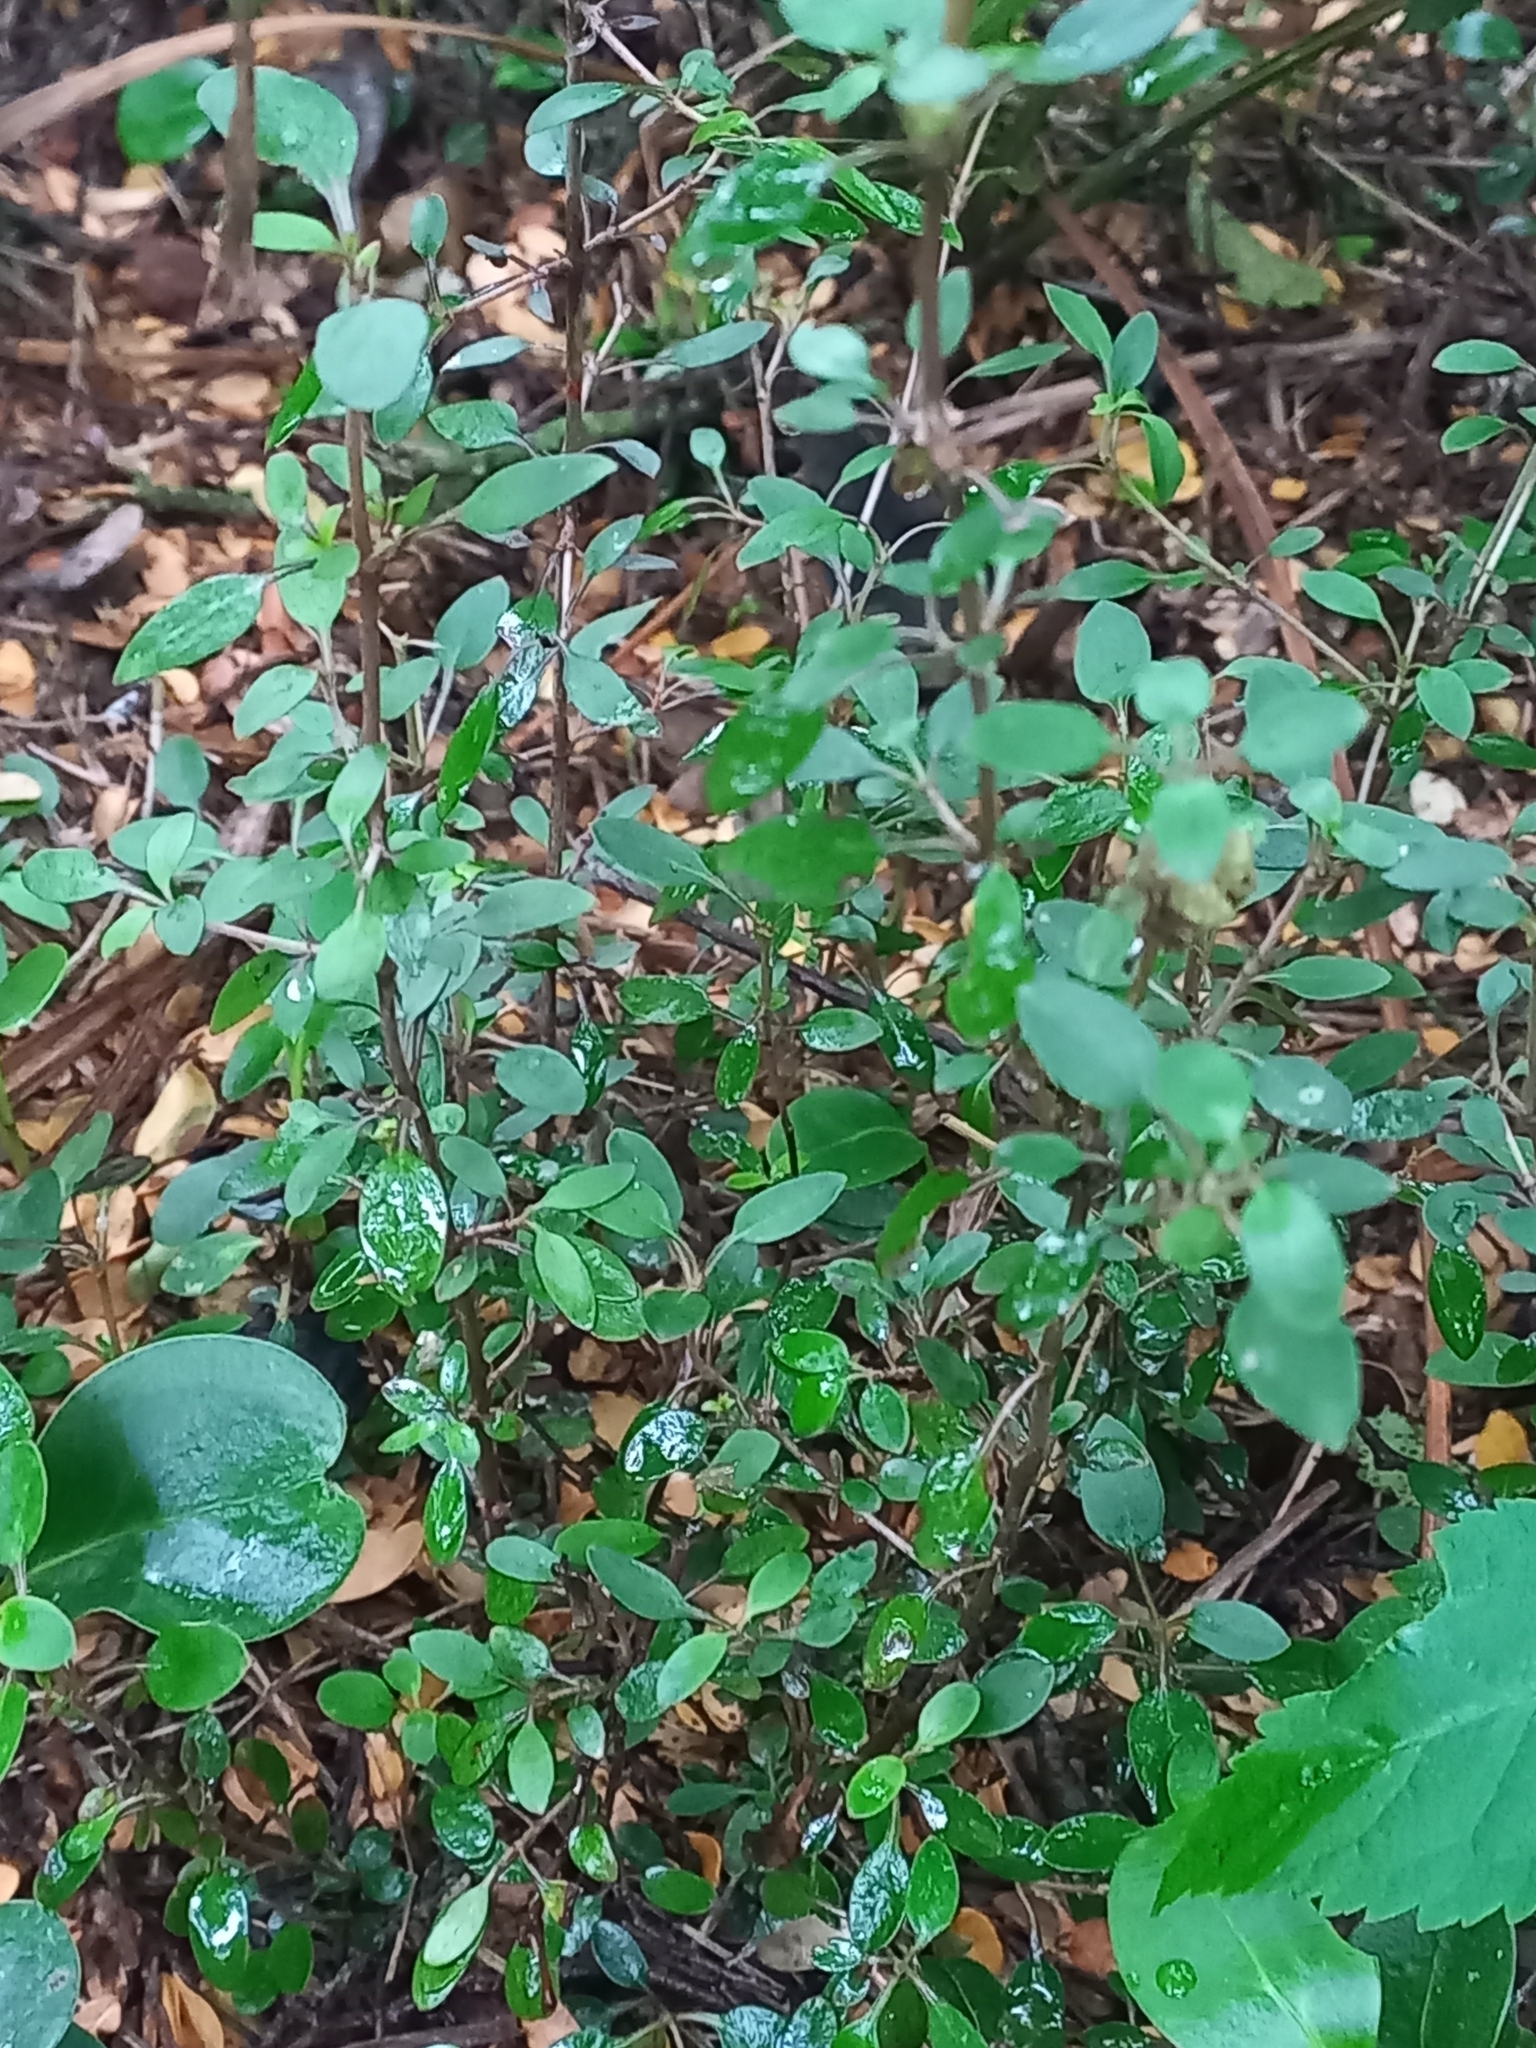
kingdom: Plantae
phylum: Tracheophyta
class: Magnoliopsida
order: Gentianales
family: Rubiaceae
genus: Coprosma
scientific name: Coprosma propinqua
